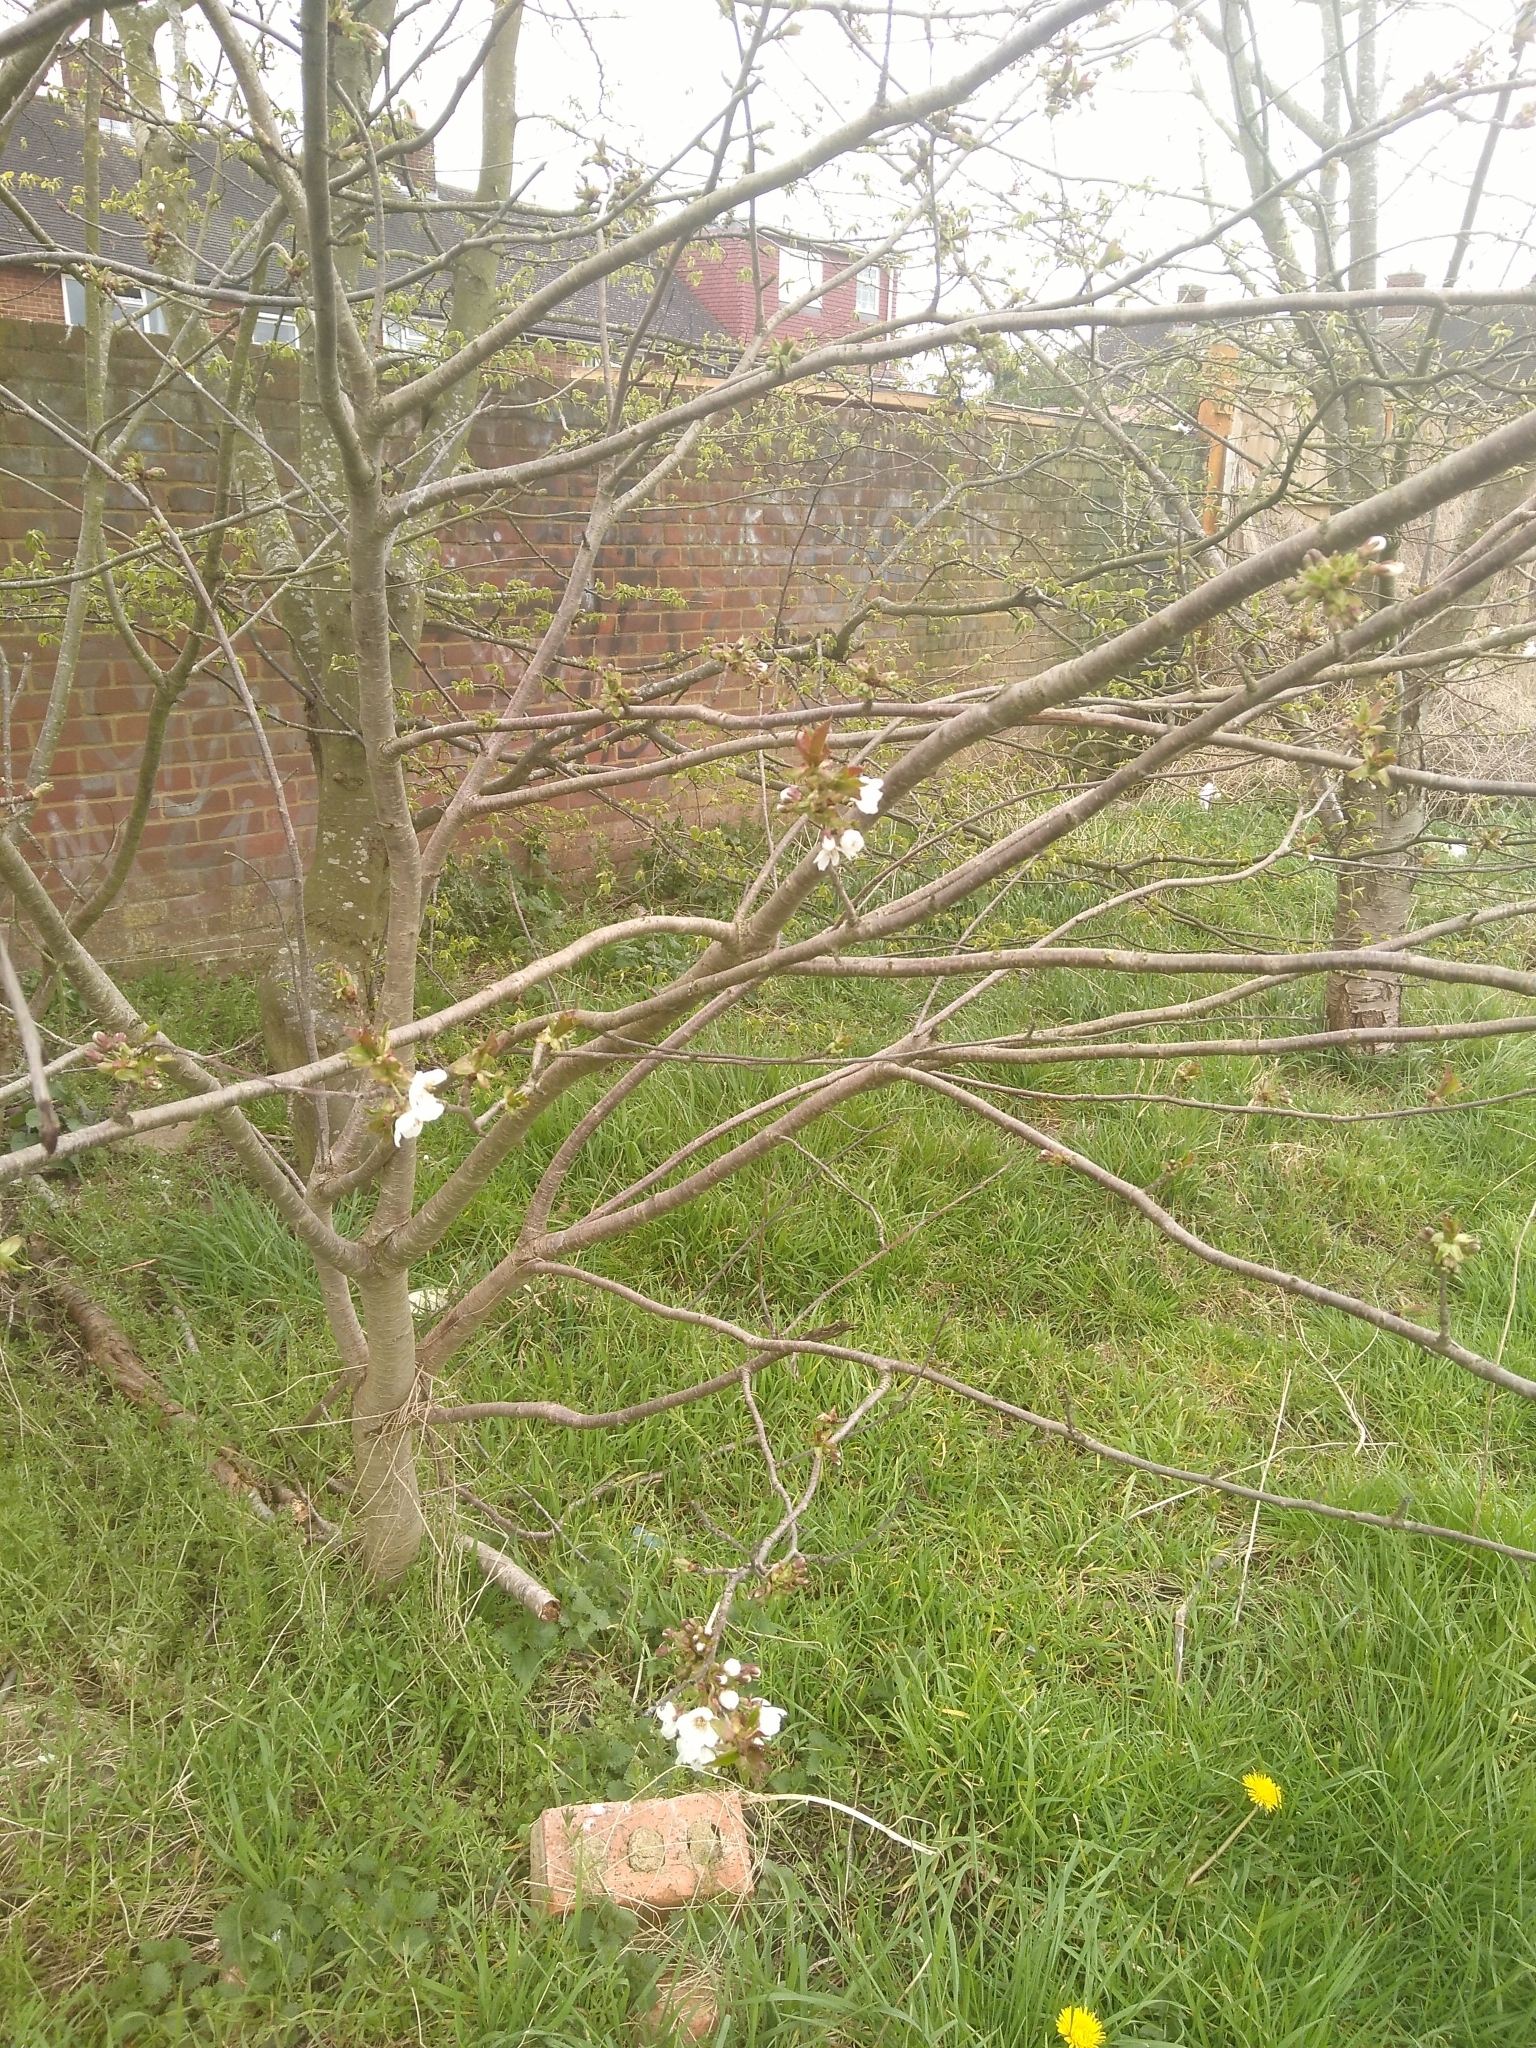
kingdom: Plantae
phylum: Tracheophyta
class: Magnoliopsida
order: Rosales
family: Rosaceae
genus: Prunus
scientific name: Prunus avium
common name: Sweet cherry
